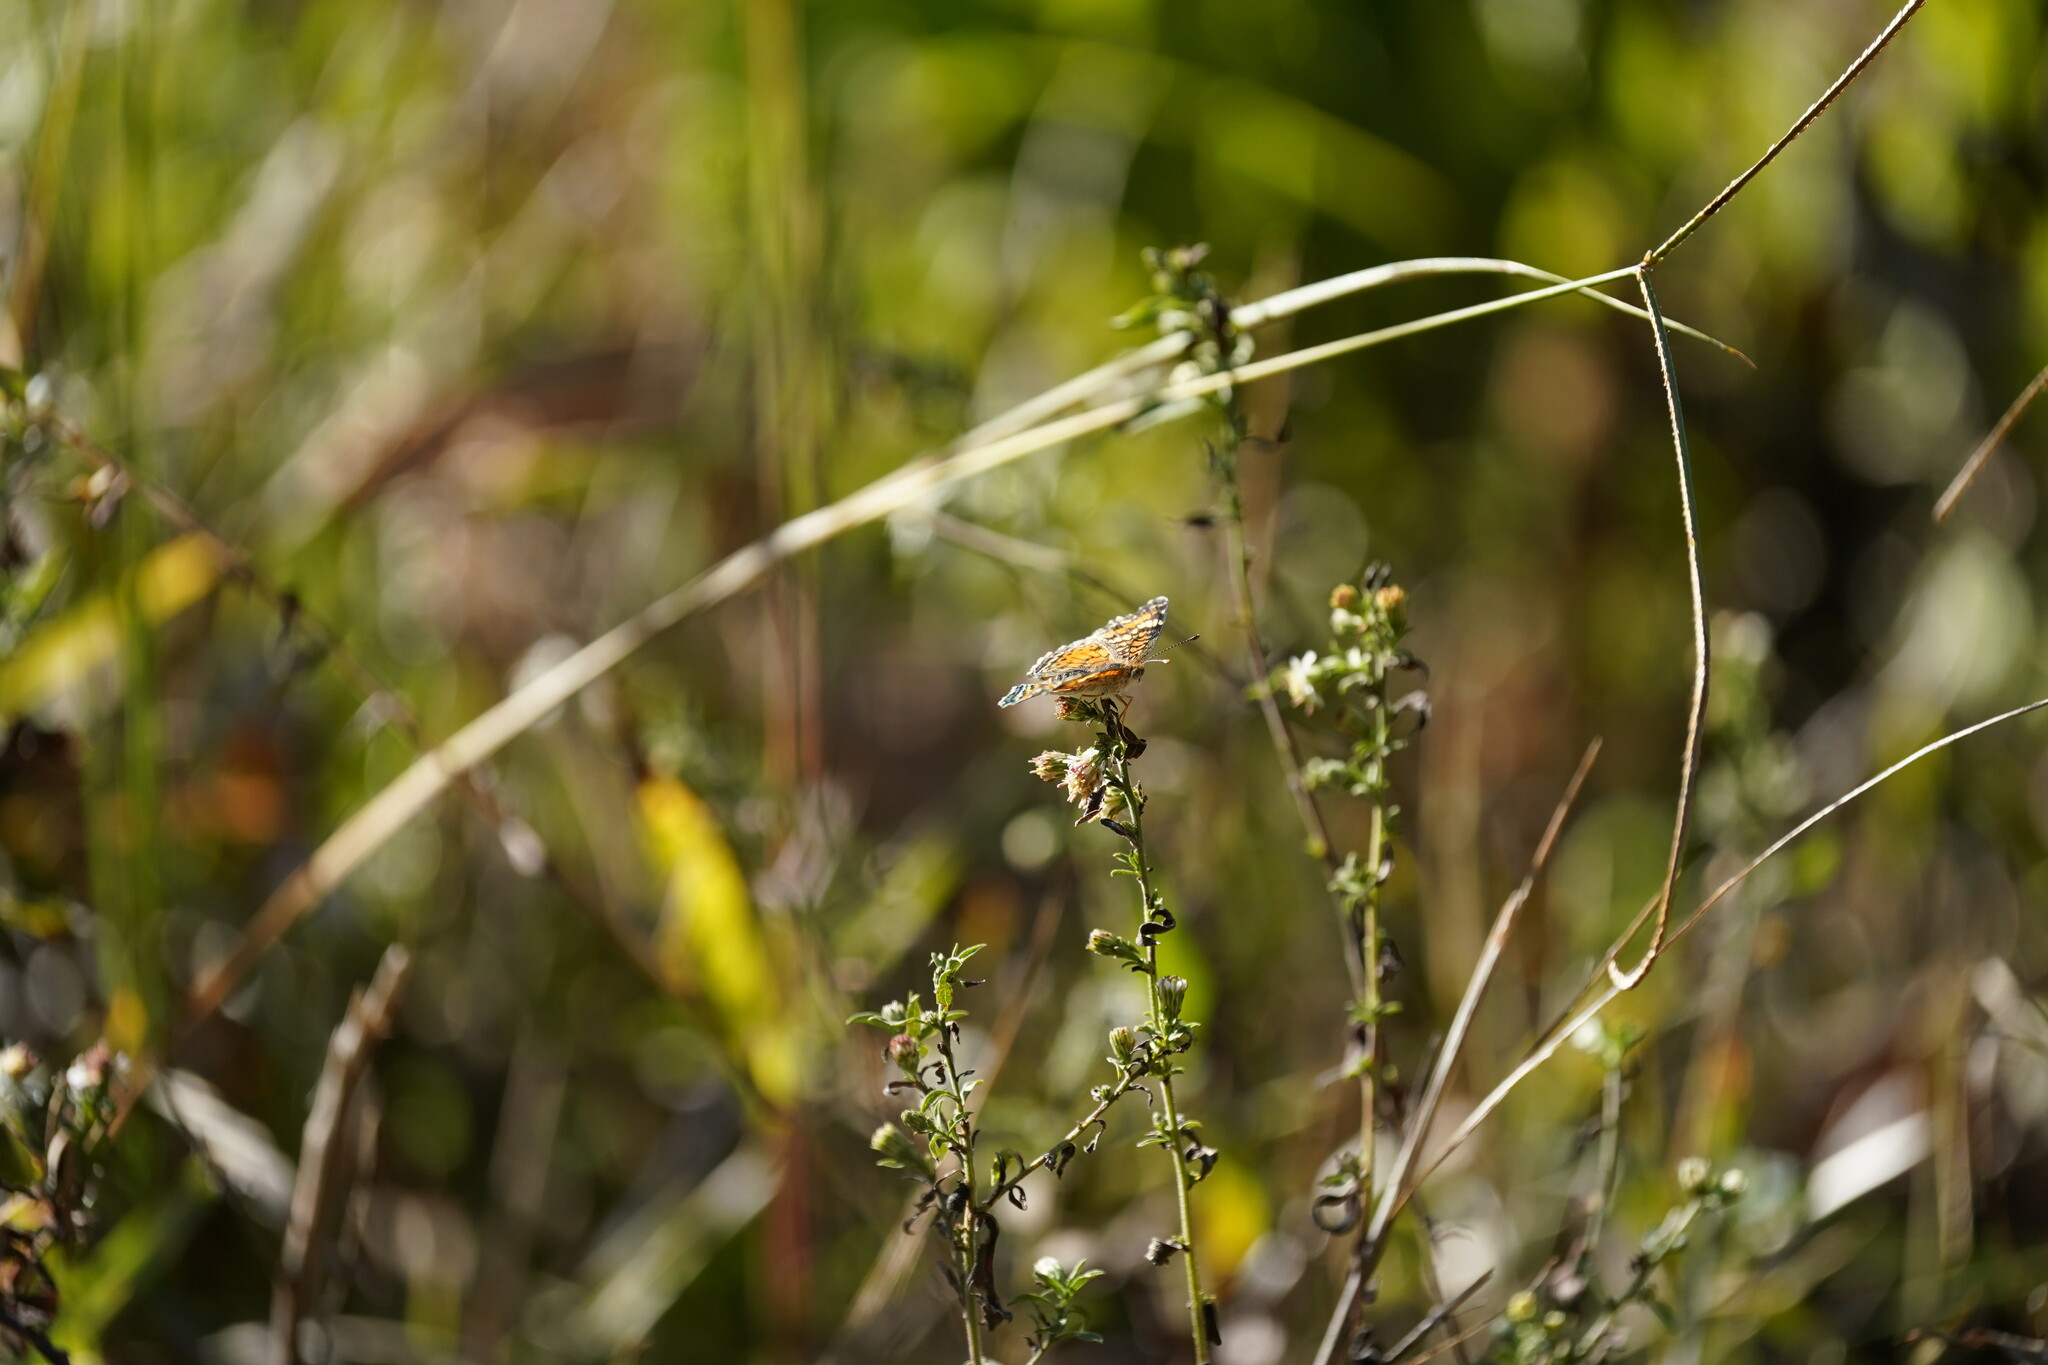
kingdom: Animalia
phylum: Arthropoda
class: Insecta
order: Lepidoptera
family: Nymphalidae
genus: Phyciodes
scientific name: Phyciodes phaon
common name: Phaon crescent
